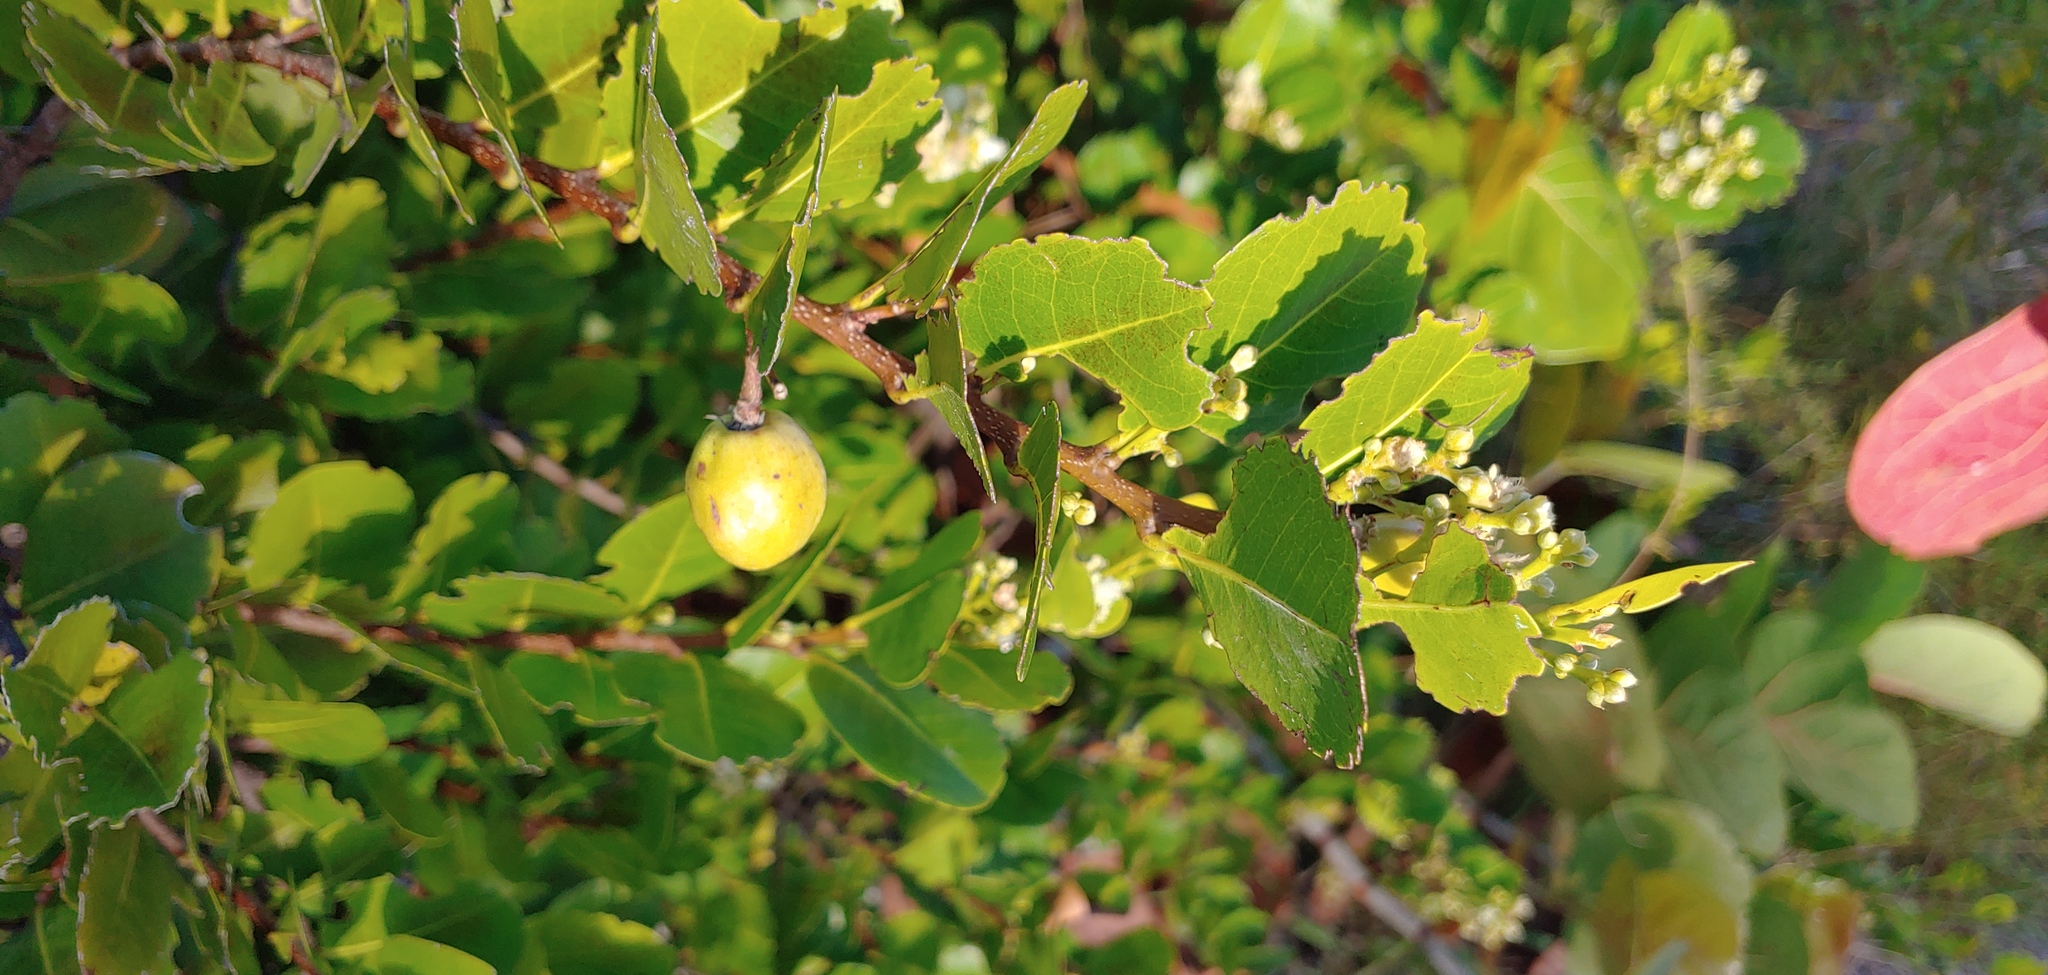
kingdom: Plantae
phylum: Tracheophyta
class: Magnoliopsida
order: Malpighiales
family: Chrysobalanaceae
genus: Chrysobalanus
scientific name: Chrysobalanus icaco
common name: Coco plum
